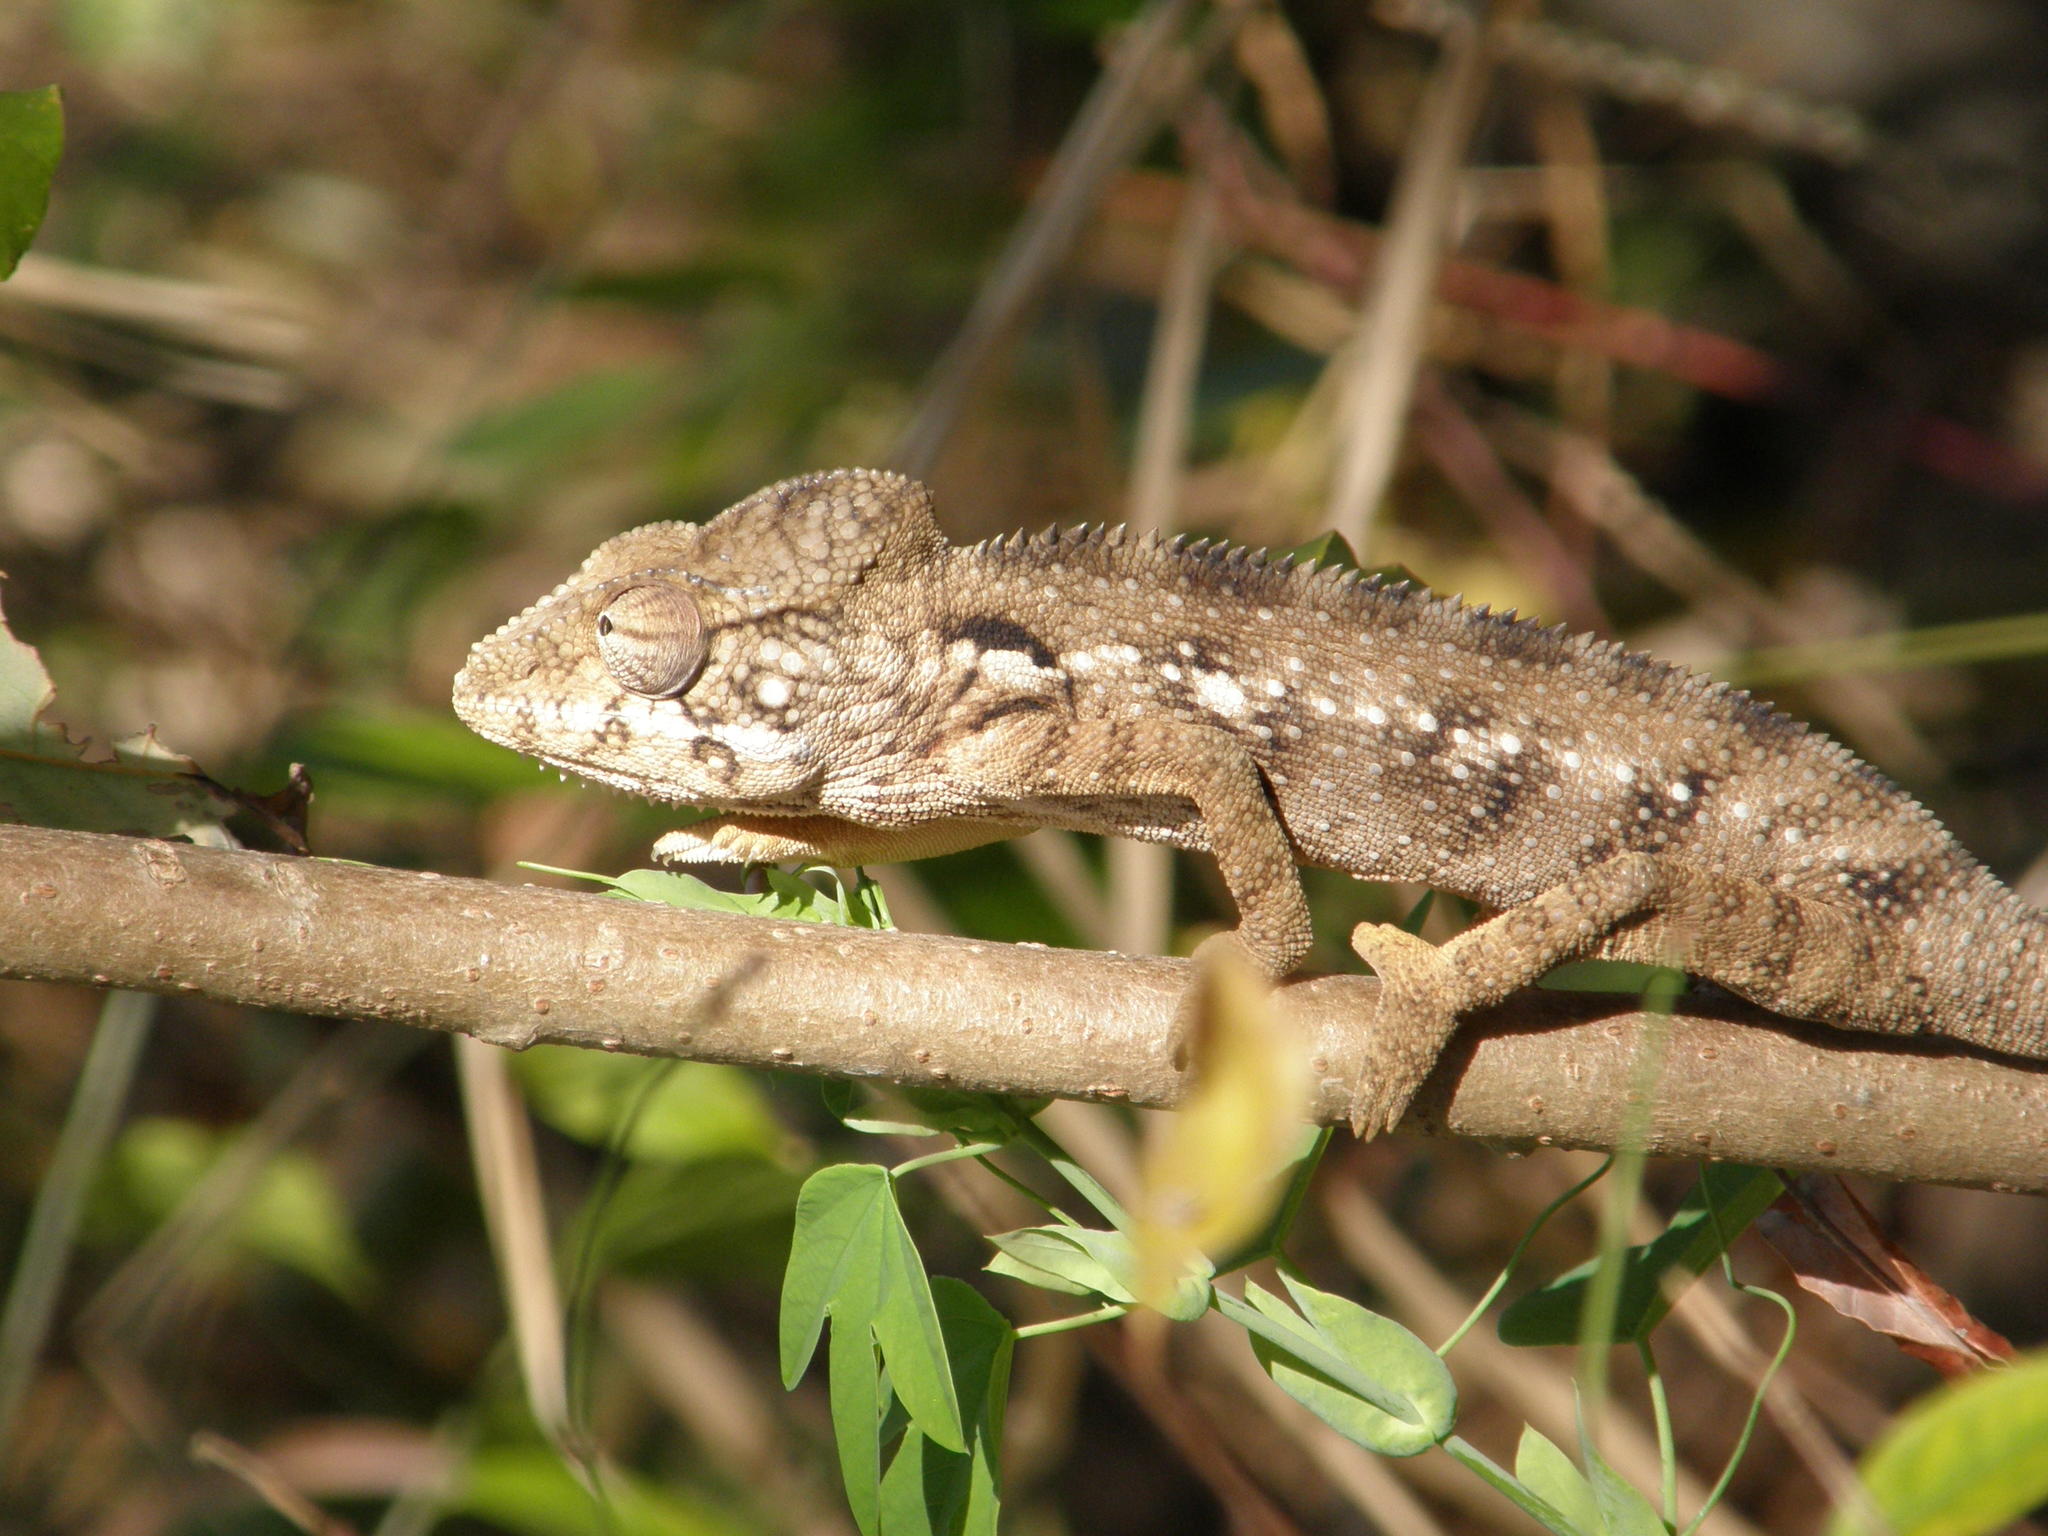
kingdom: Animalia
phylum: Chordata
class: Squamata
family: Chamaeleonidae
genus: Furcifer
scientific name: Furcifer oustaleti
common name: Oustalet's chameleon
